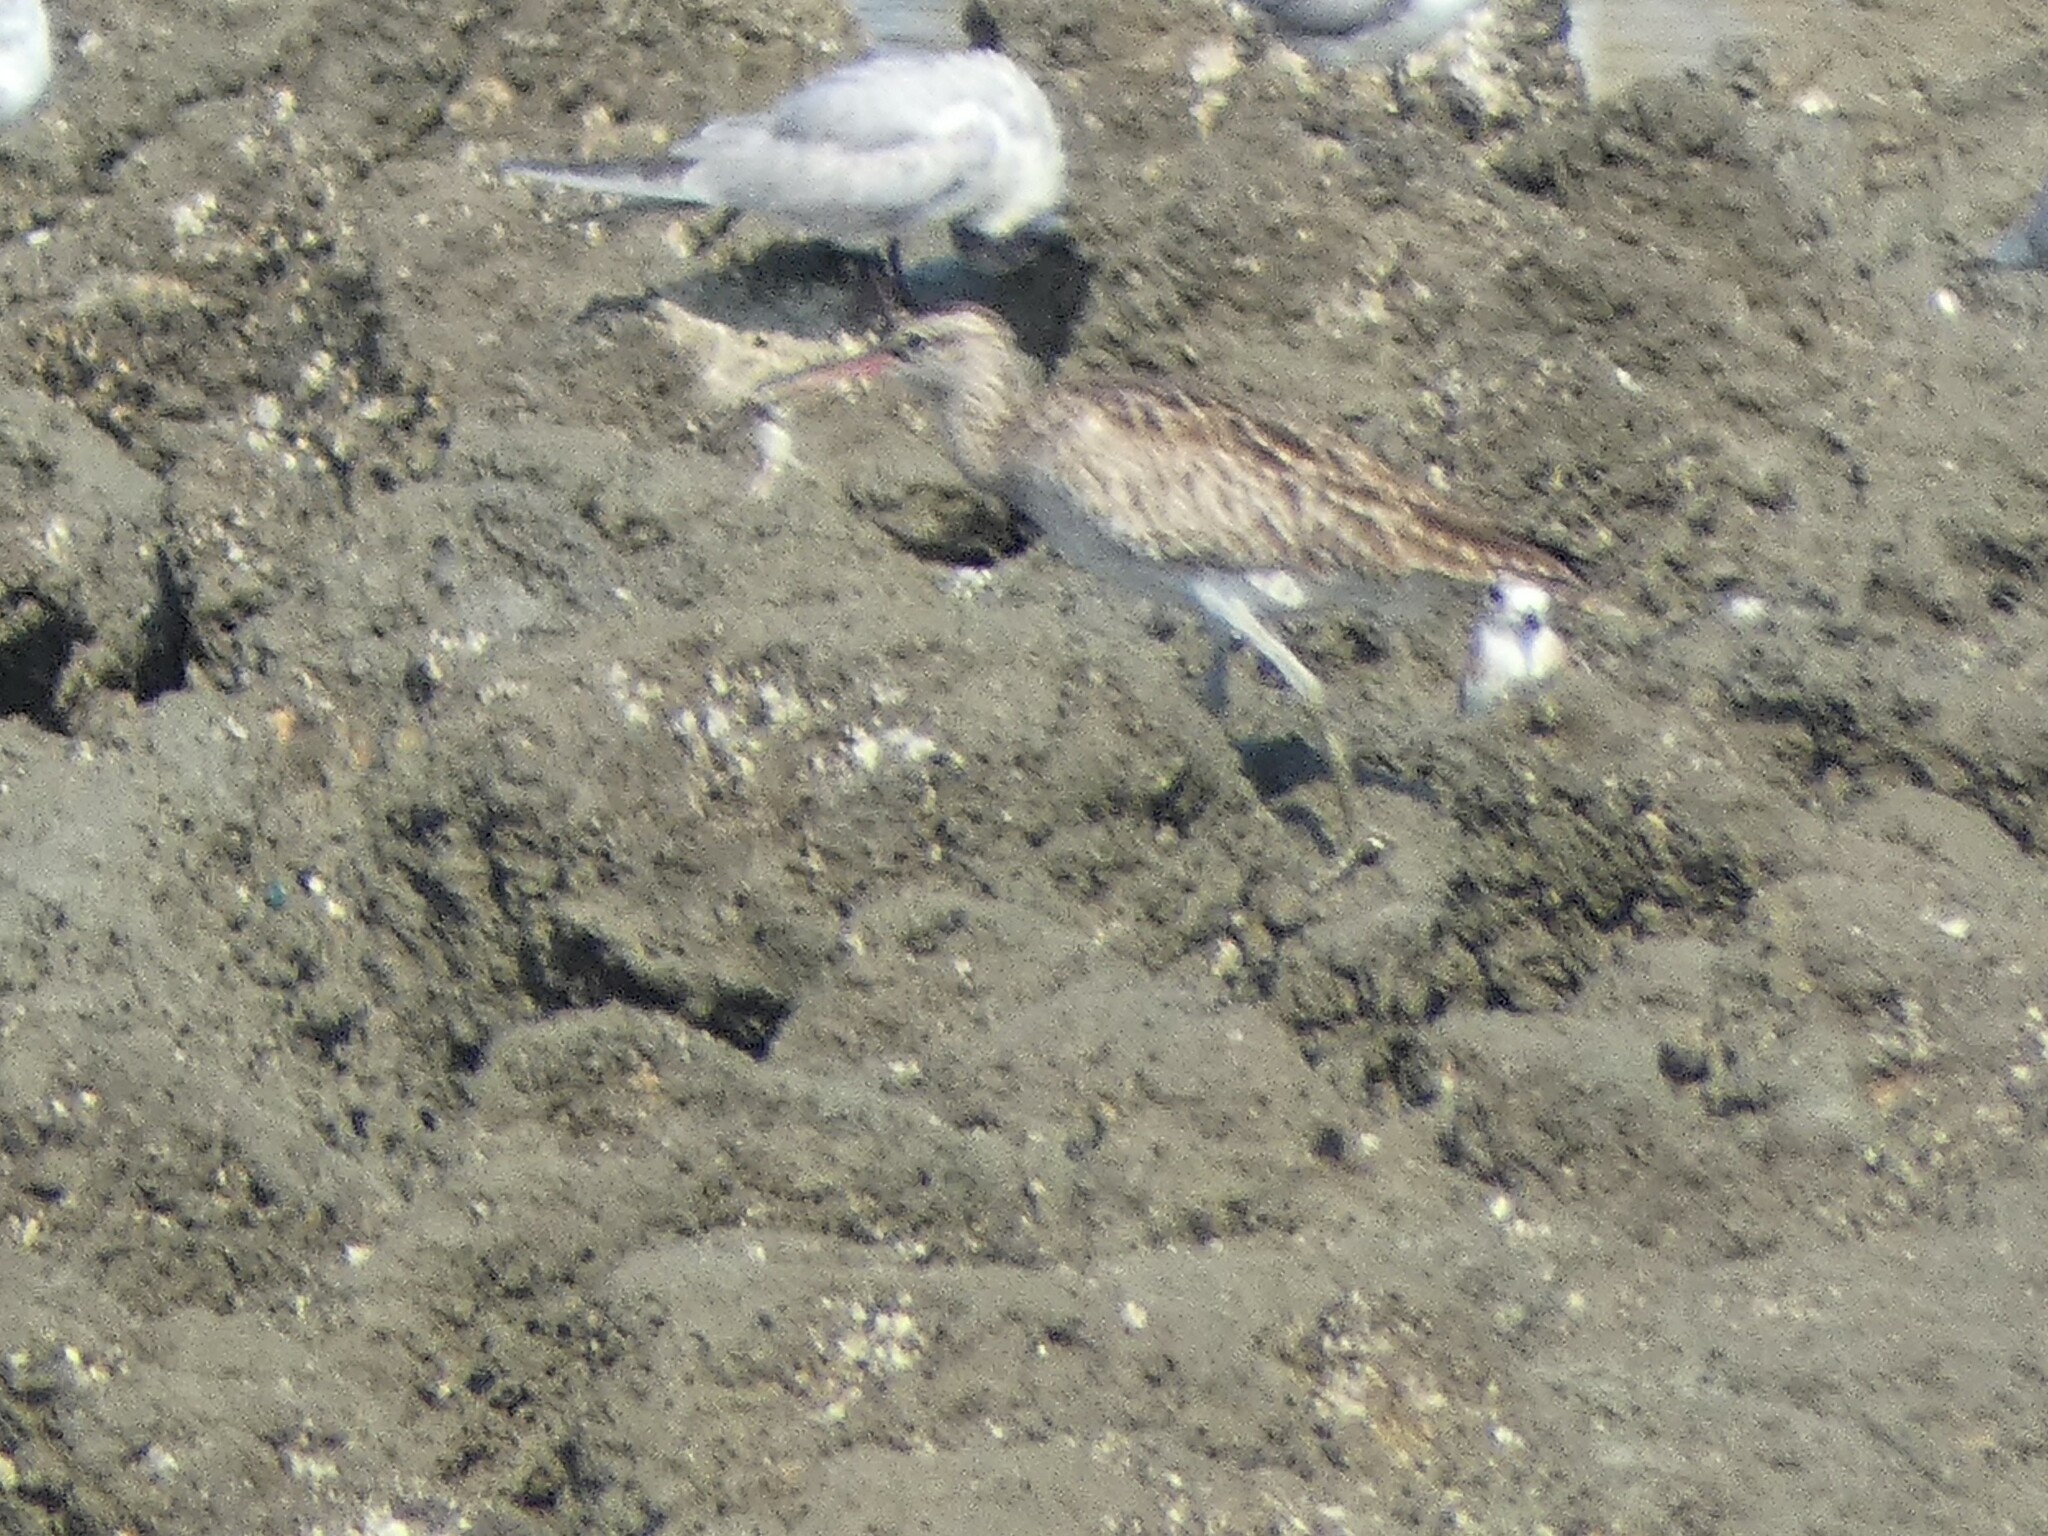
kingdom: Animalia
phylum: Chordata
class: Aves
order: Charadriiformes
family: Scolopacidae
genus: Numenius
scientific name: Numenius phaeopus
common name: Whimbrel
